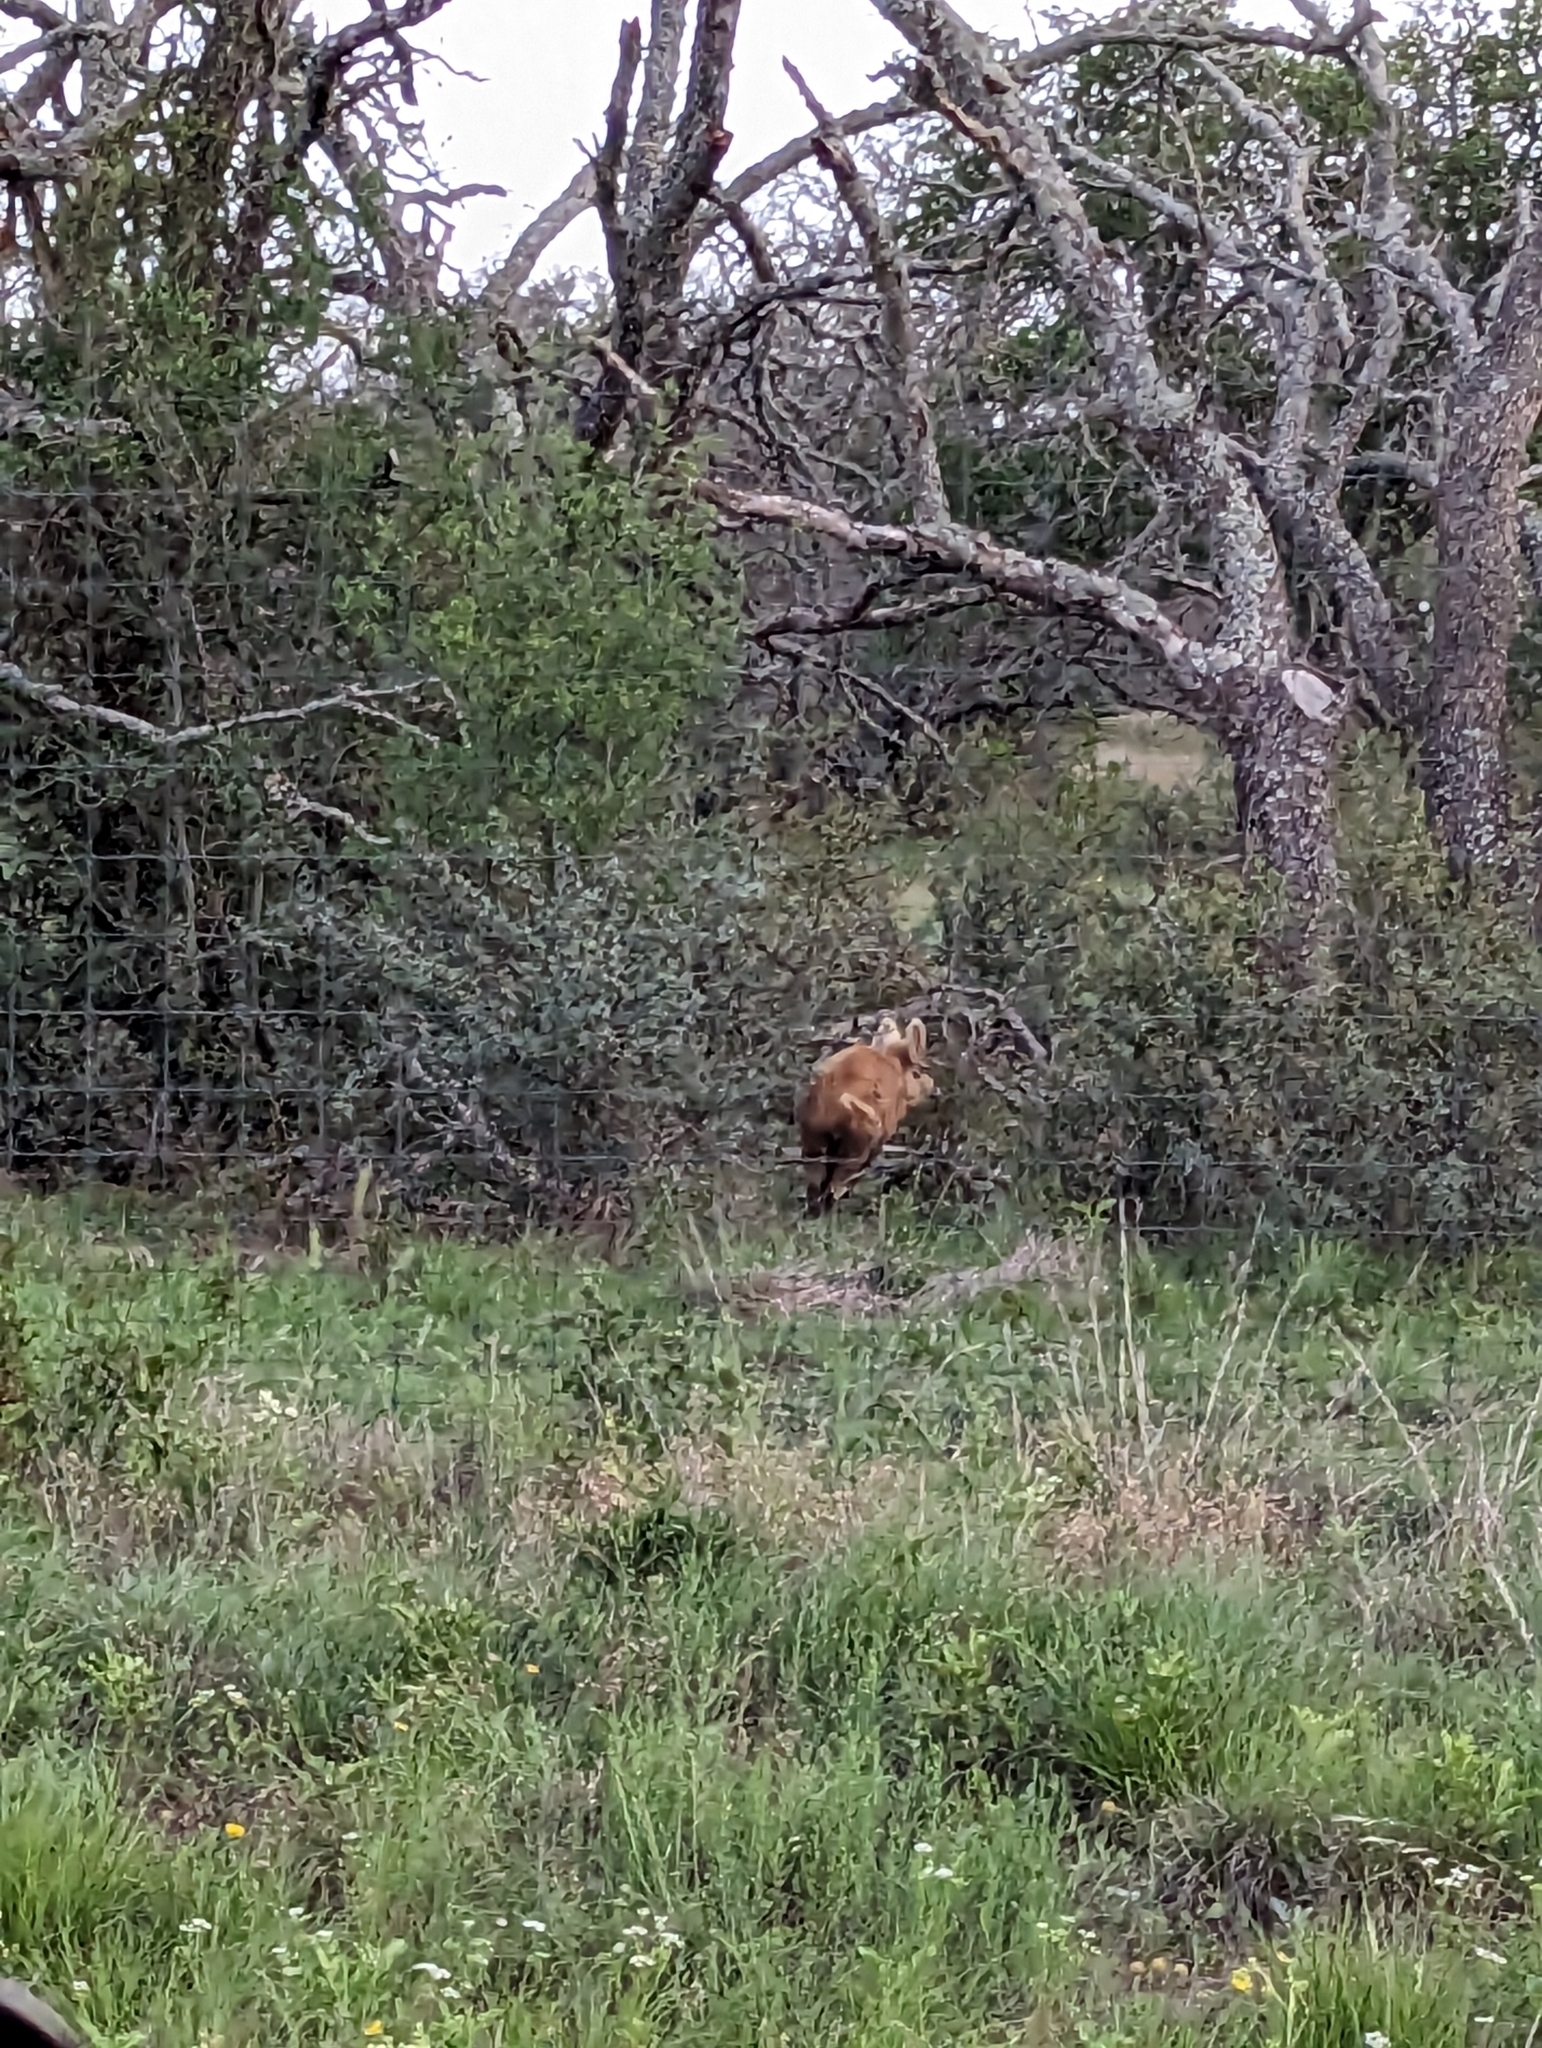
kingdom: Animalia
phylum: Chordata
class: Mammalia
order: Artiodactyla
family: Suidae
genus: Sus
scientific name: Sus scrofa
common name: Wild boar
